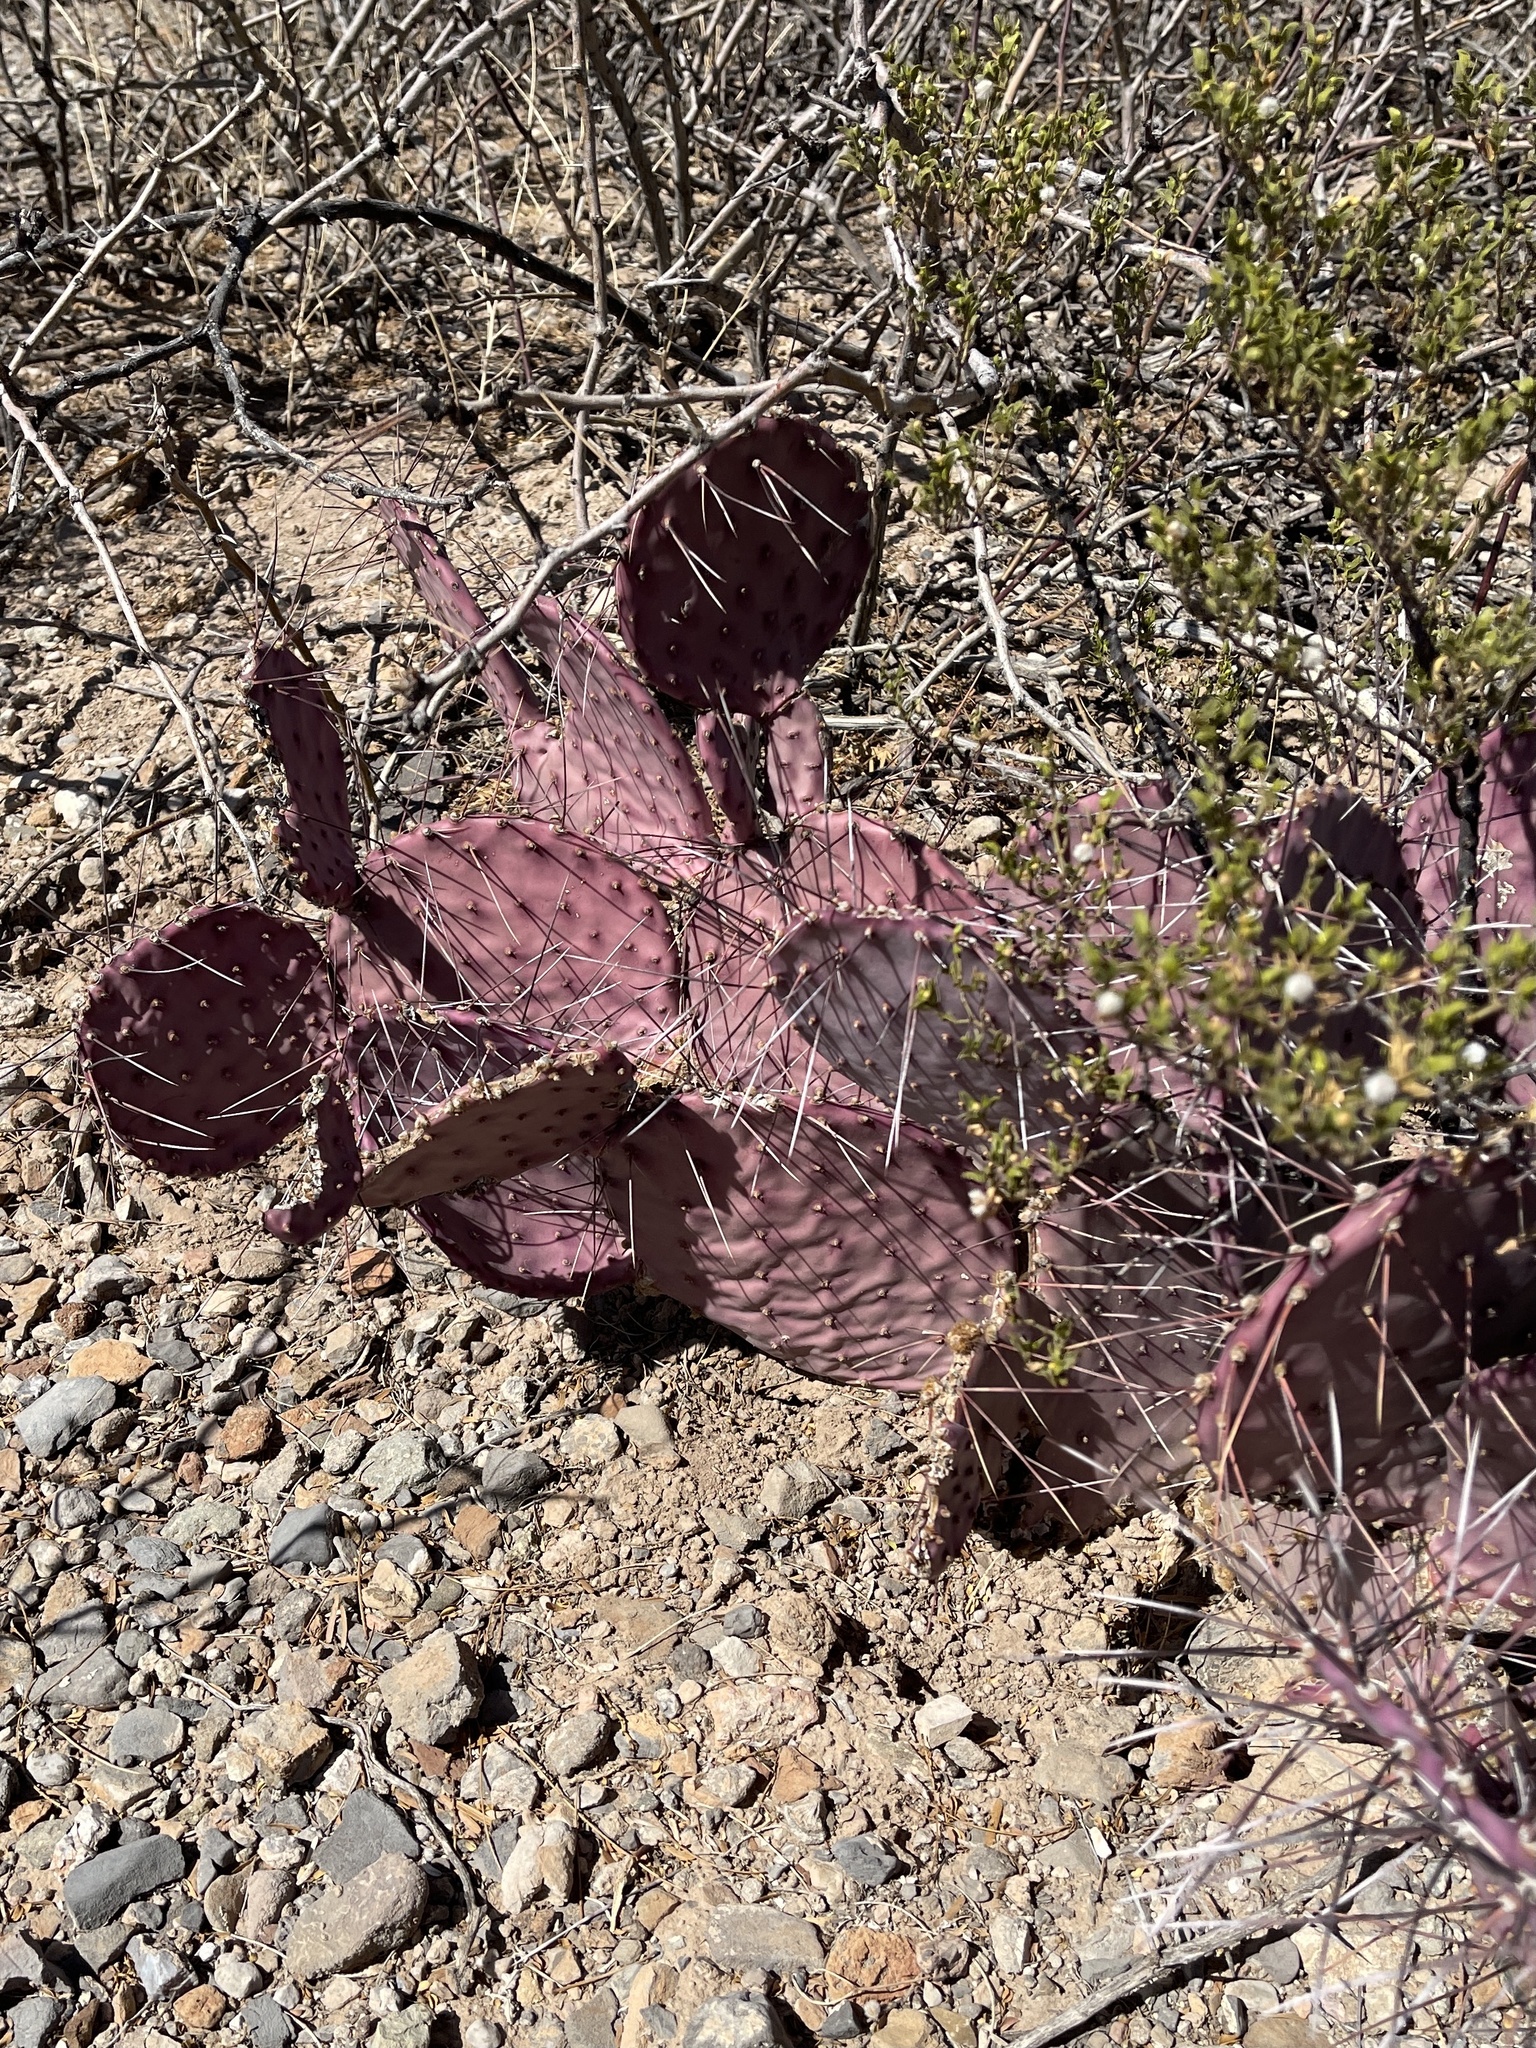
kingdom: Plantae
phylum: Tracheophyta
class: Magnoliopsida
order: Caryophyllales
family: Cactaceae
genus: Opuntia
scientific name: Opuntia macrocentra
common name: Purple prickly-pear
